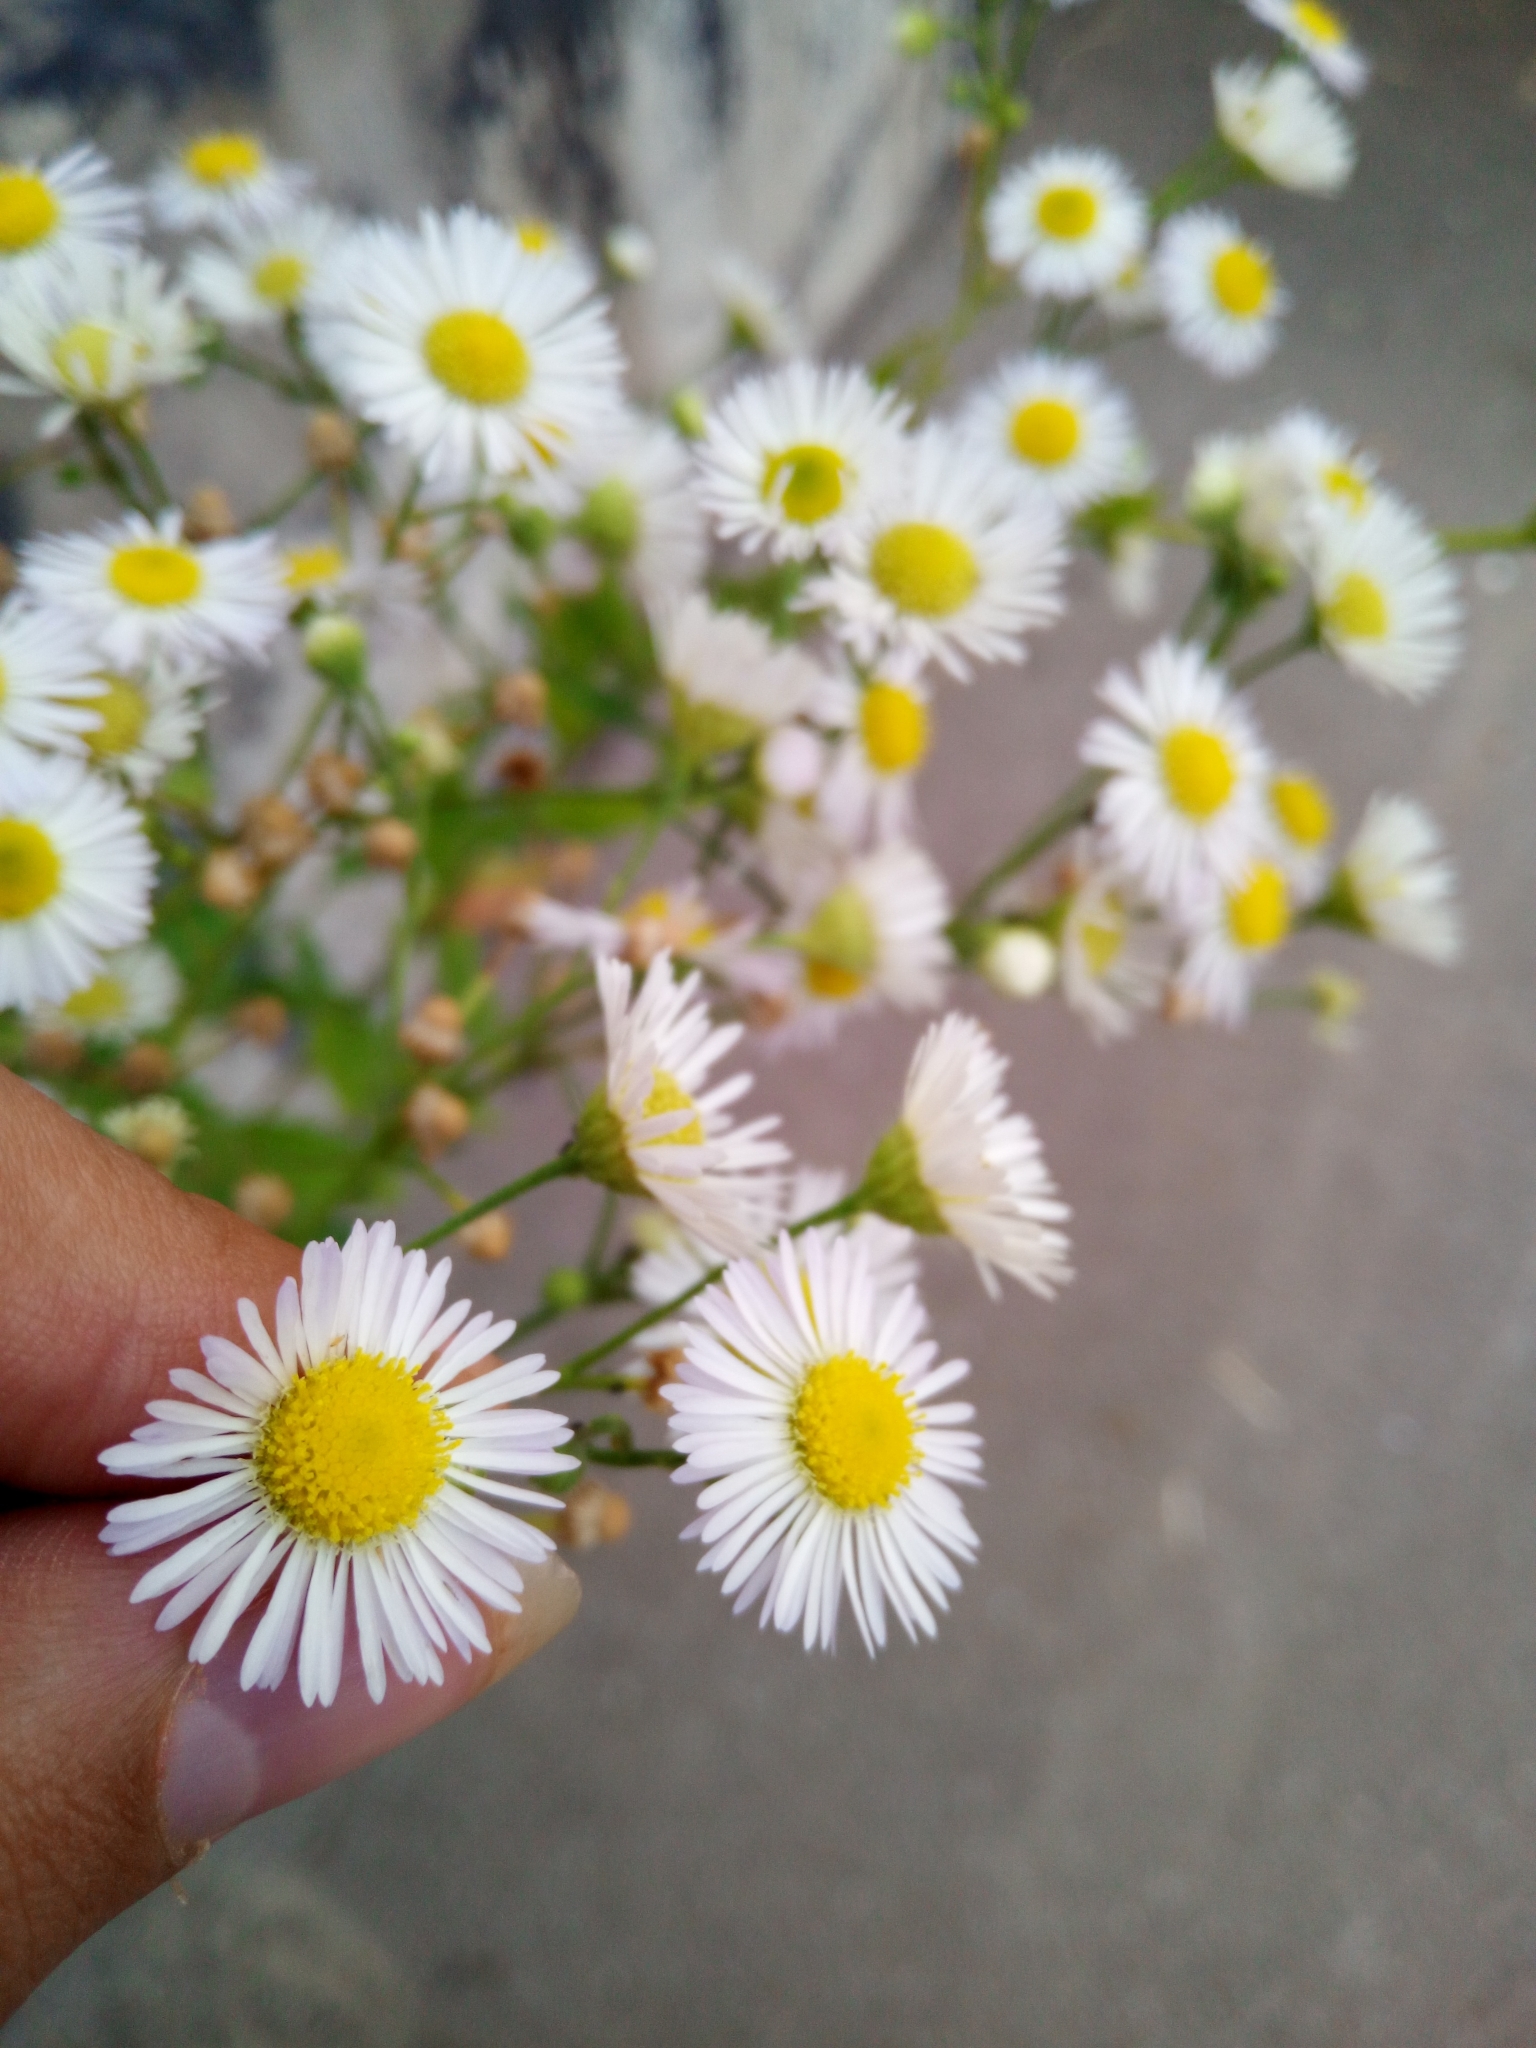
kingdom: Plantae
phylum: Tracheophyta
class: Magnoliopsida
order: Asterales
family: Asteraceae
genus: Erigeron
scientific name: Erigeron annuus
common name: Tall fleabane
